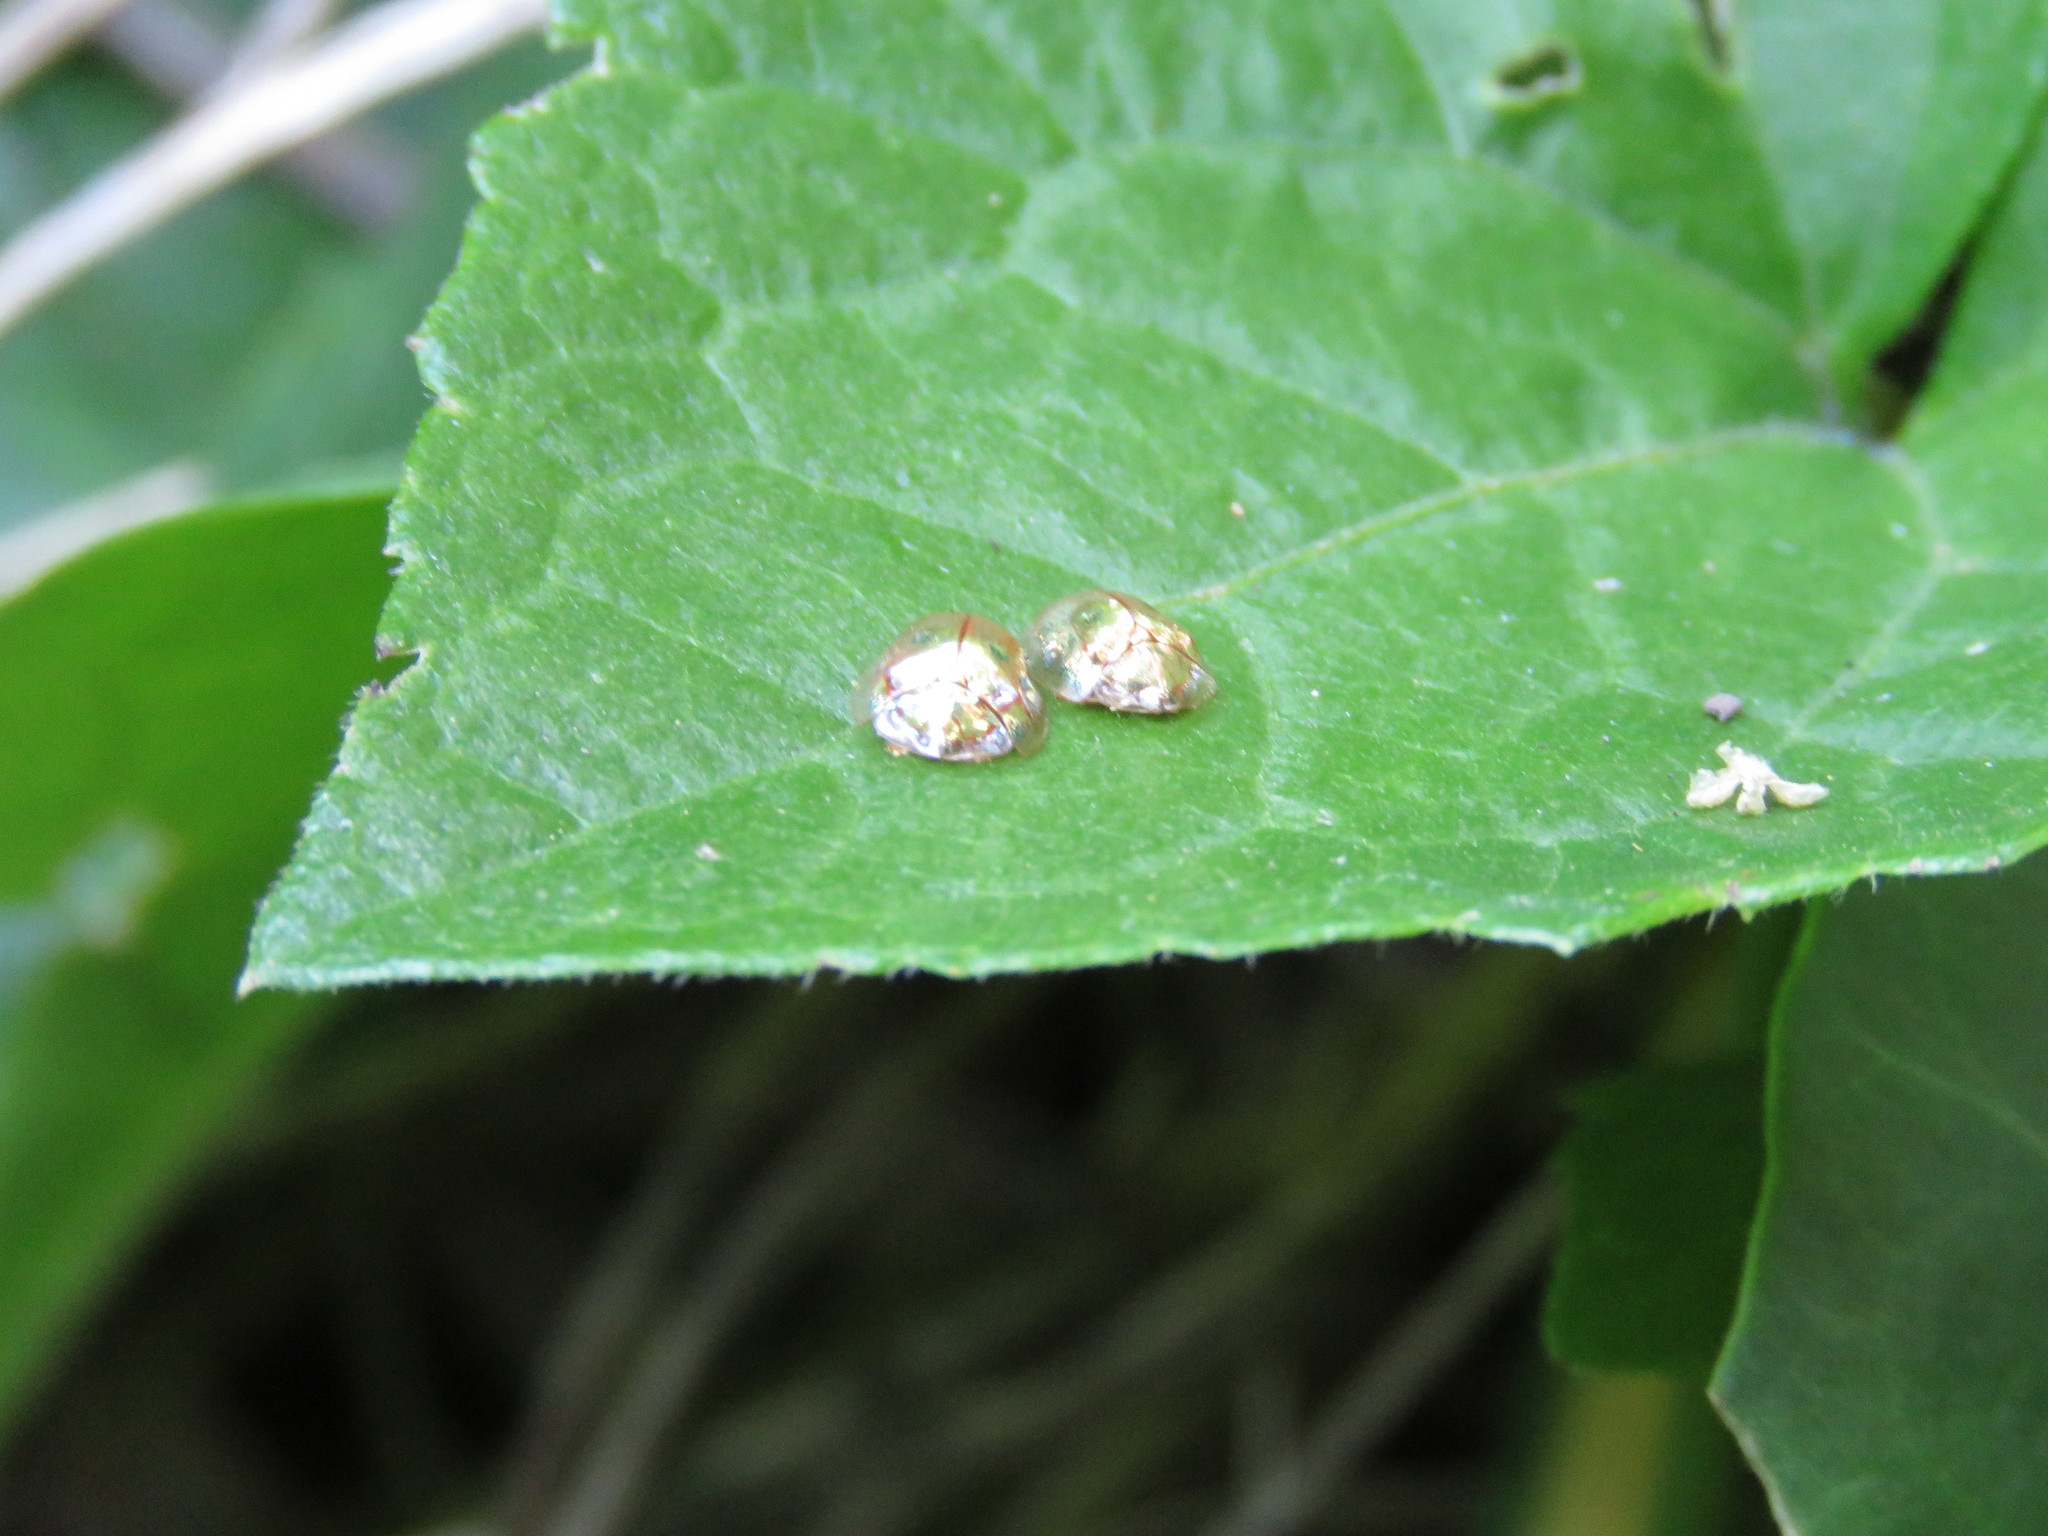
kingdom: Animalia
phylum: Arthropoda
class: Insecta
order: Coleoptera
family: Chrysomelidae
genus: Charidotella
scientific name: Charidotella sexpunctata
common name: Golden tortoise beetle
